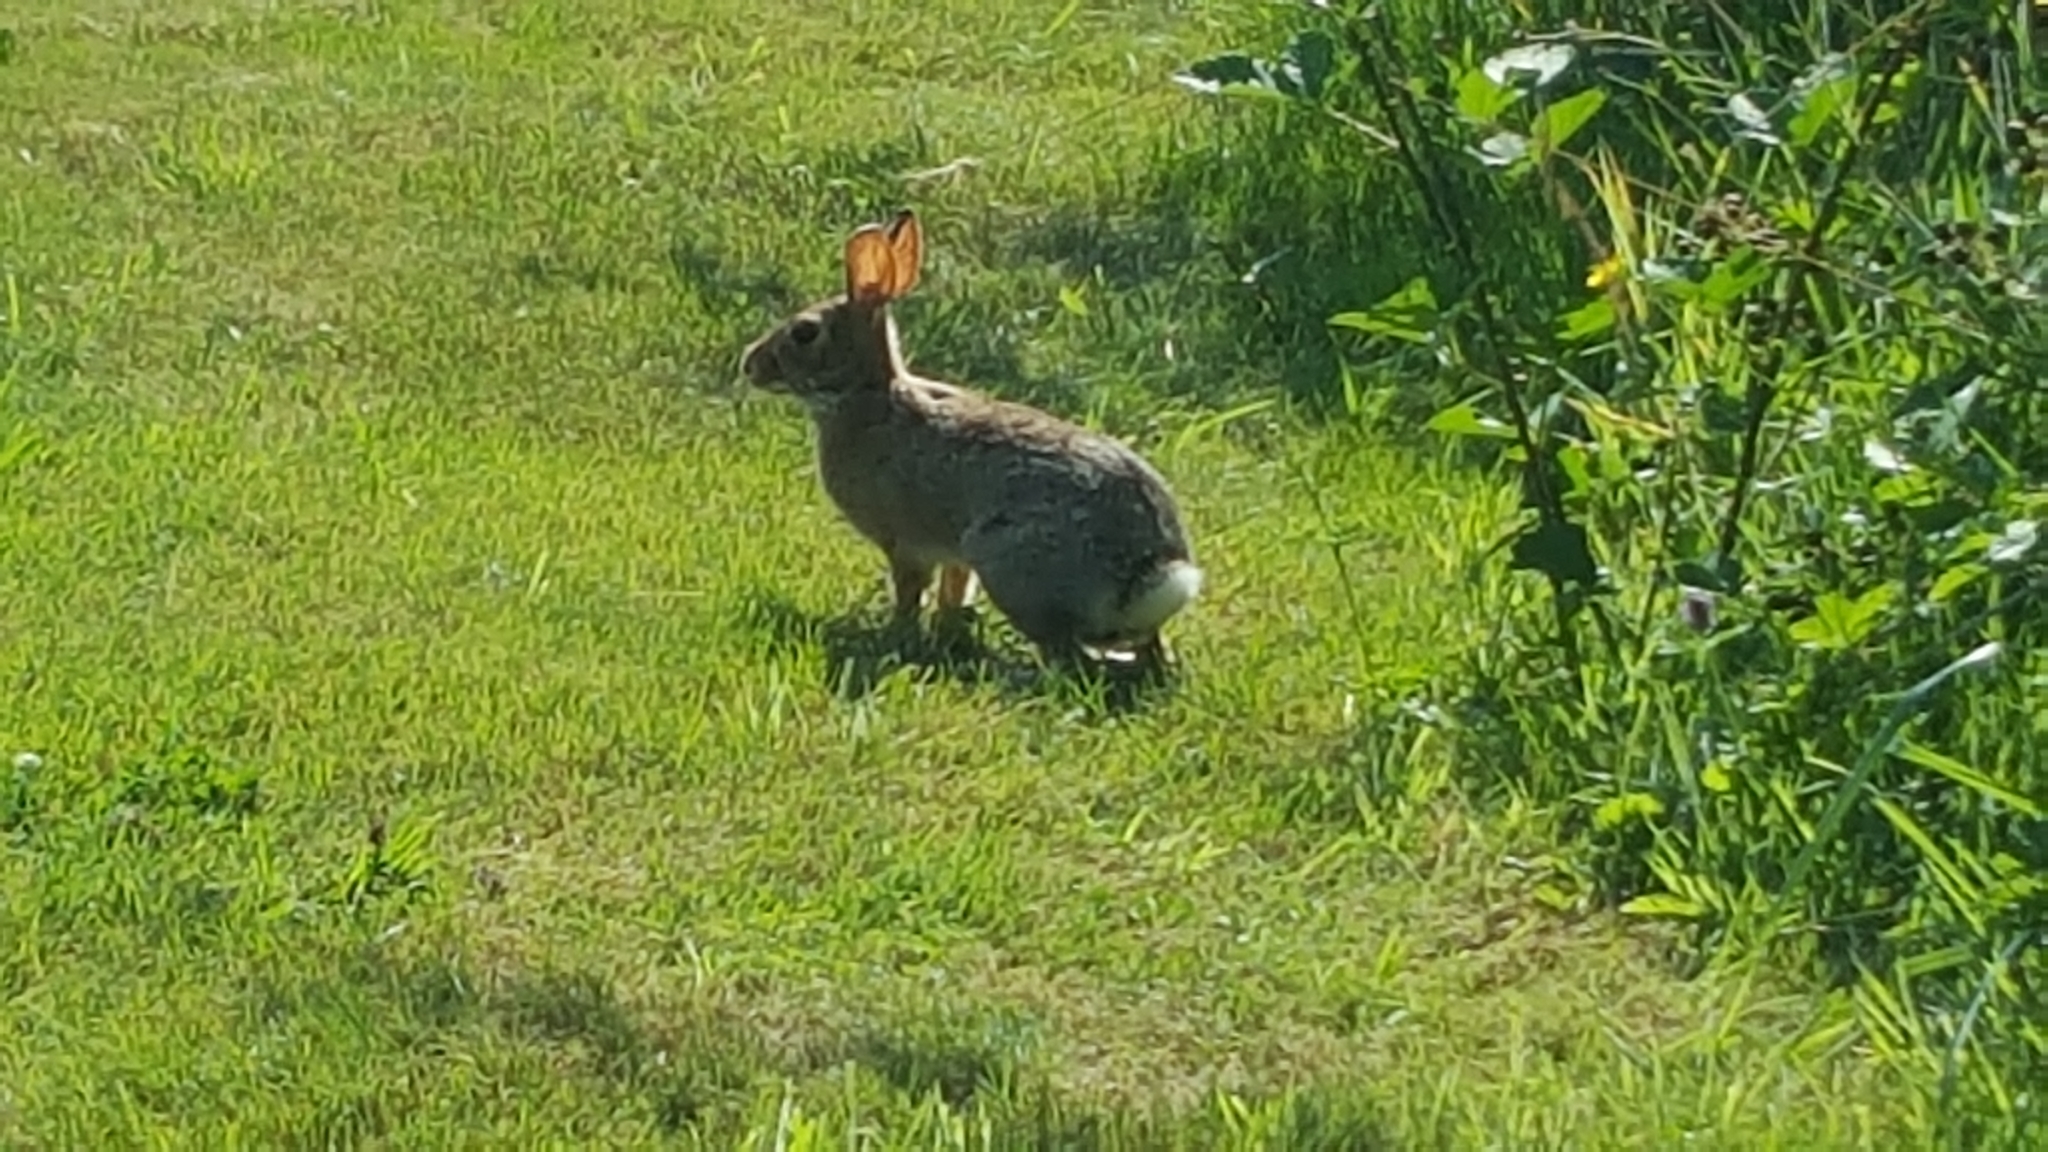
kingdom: Animalia
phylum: Chordata
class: Mammalia
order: Lagomorpha
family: Leporidae
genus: Sylvilagus
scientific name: Sylvilagus floridanus
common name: Eastern cottontail
